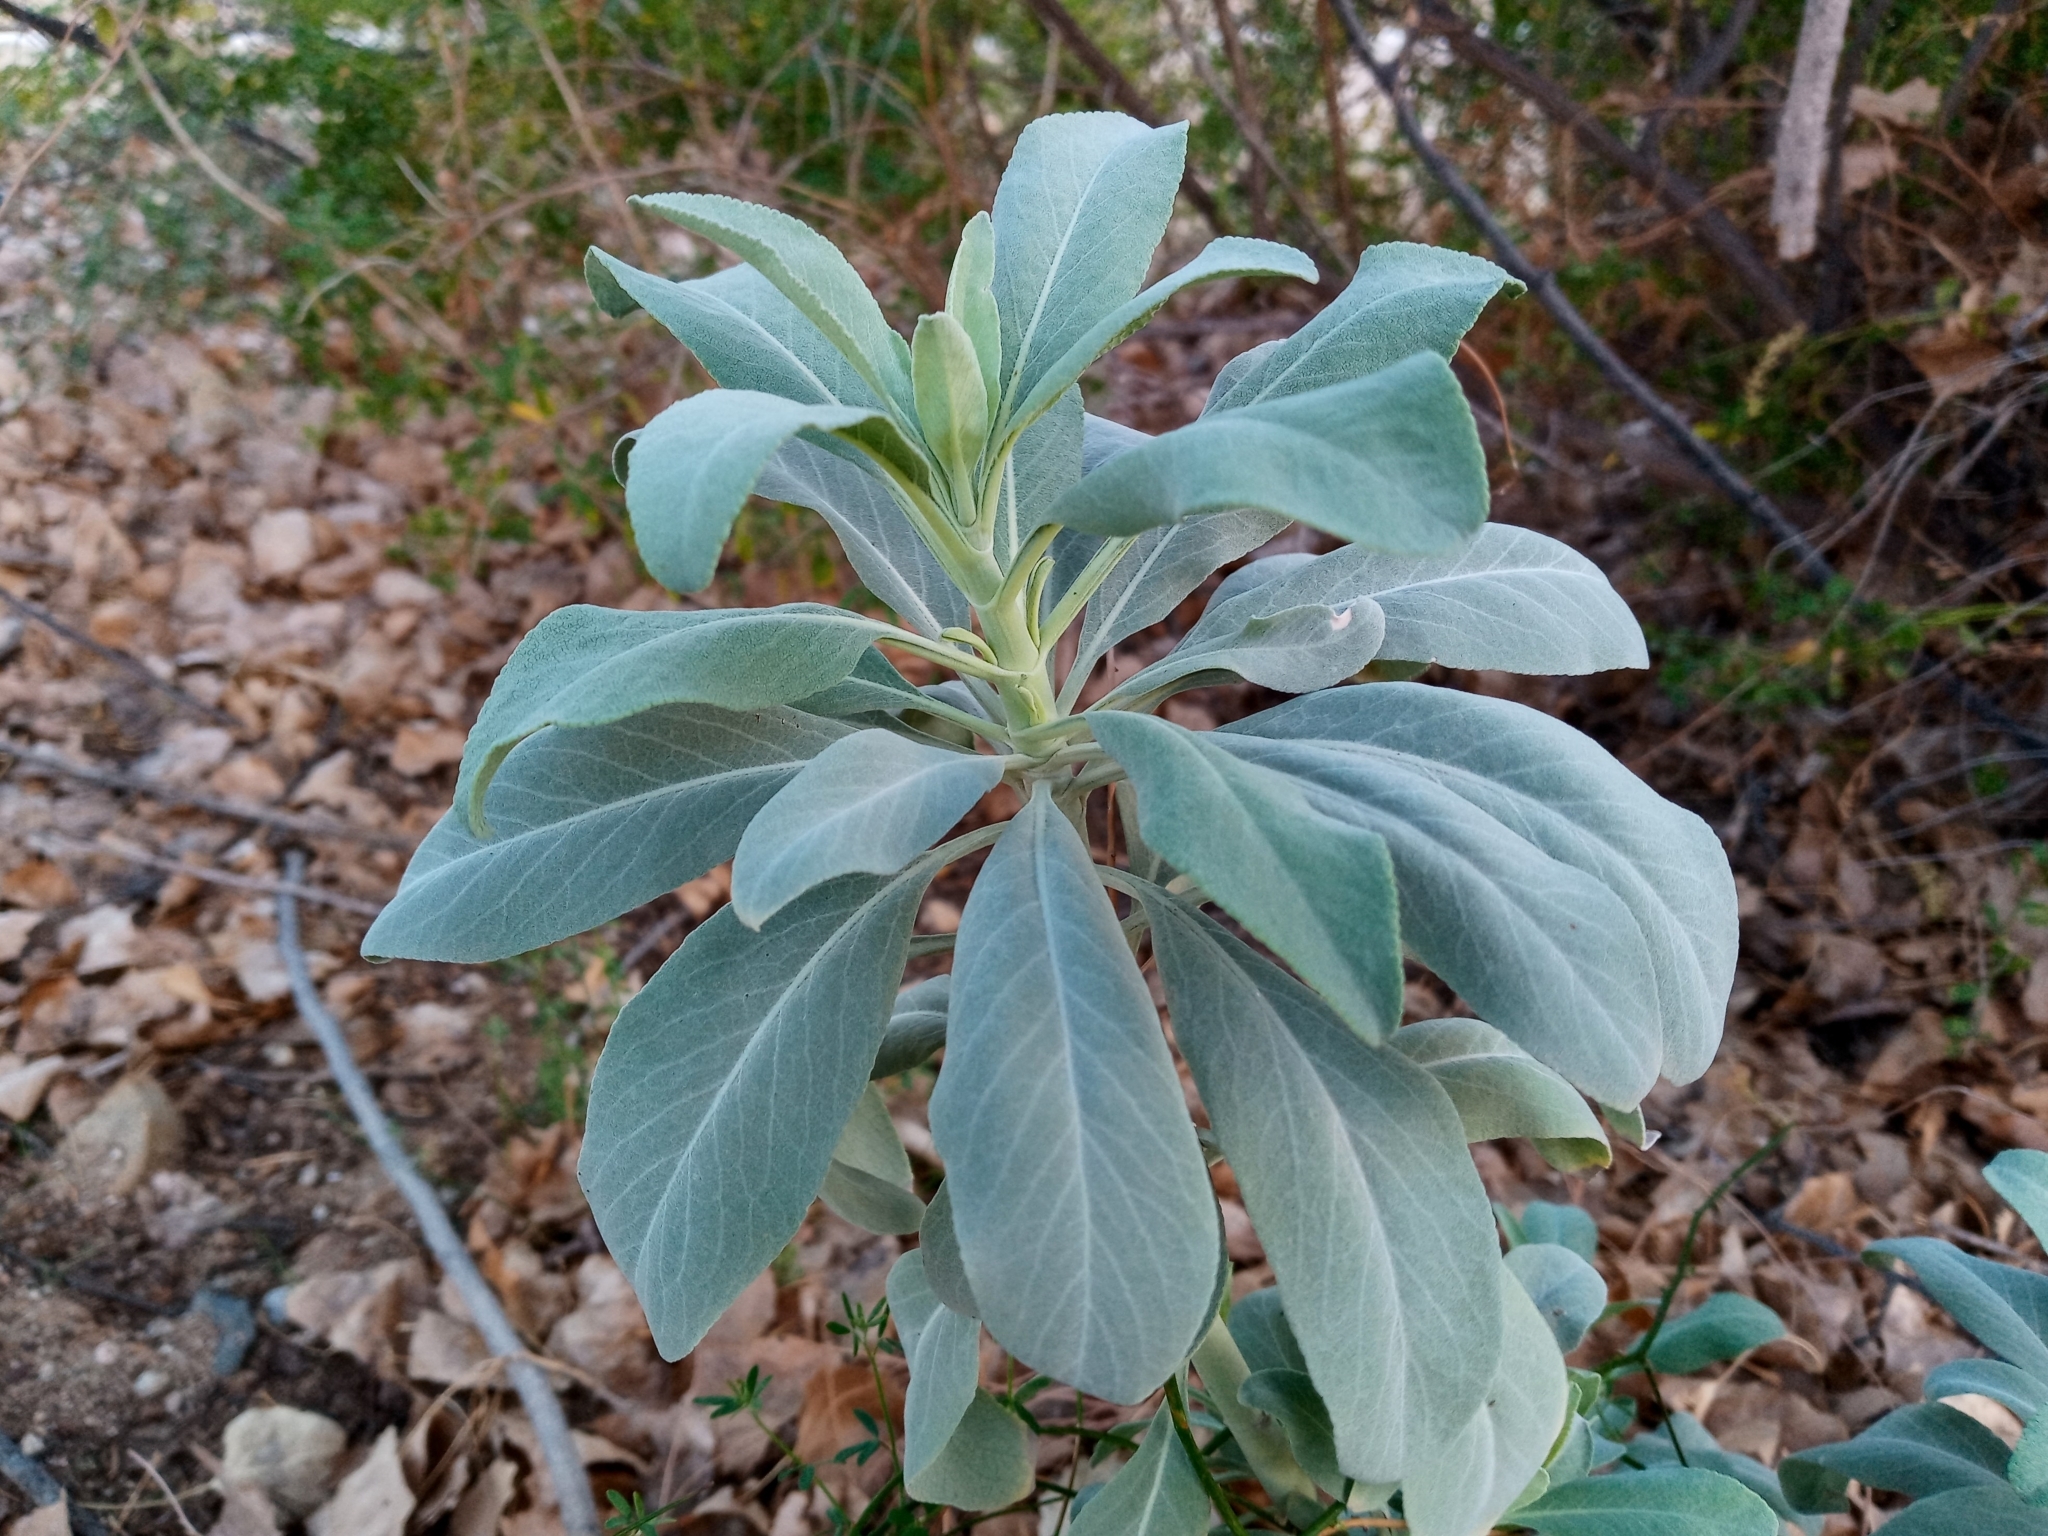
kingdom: Plantae
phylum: Tracheophyta
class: Magnoliopsida
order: Lamiales
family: Lamiaceae
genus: Salvia
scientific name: Salvia apiana
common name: White sage
